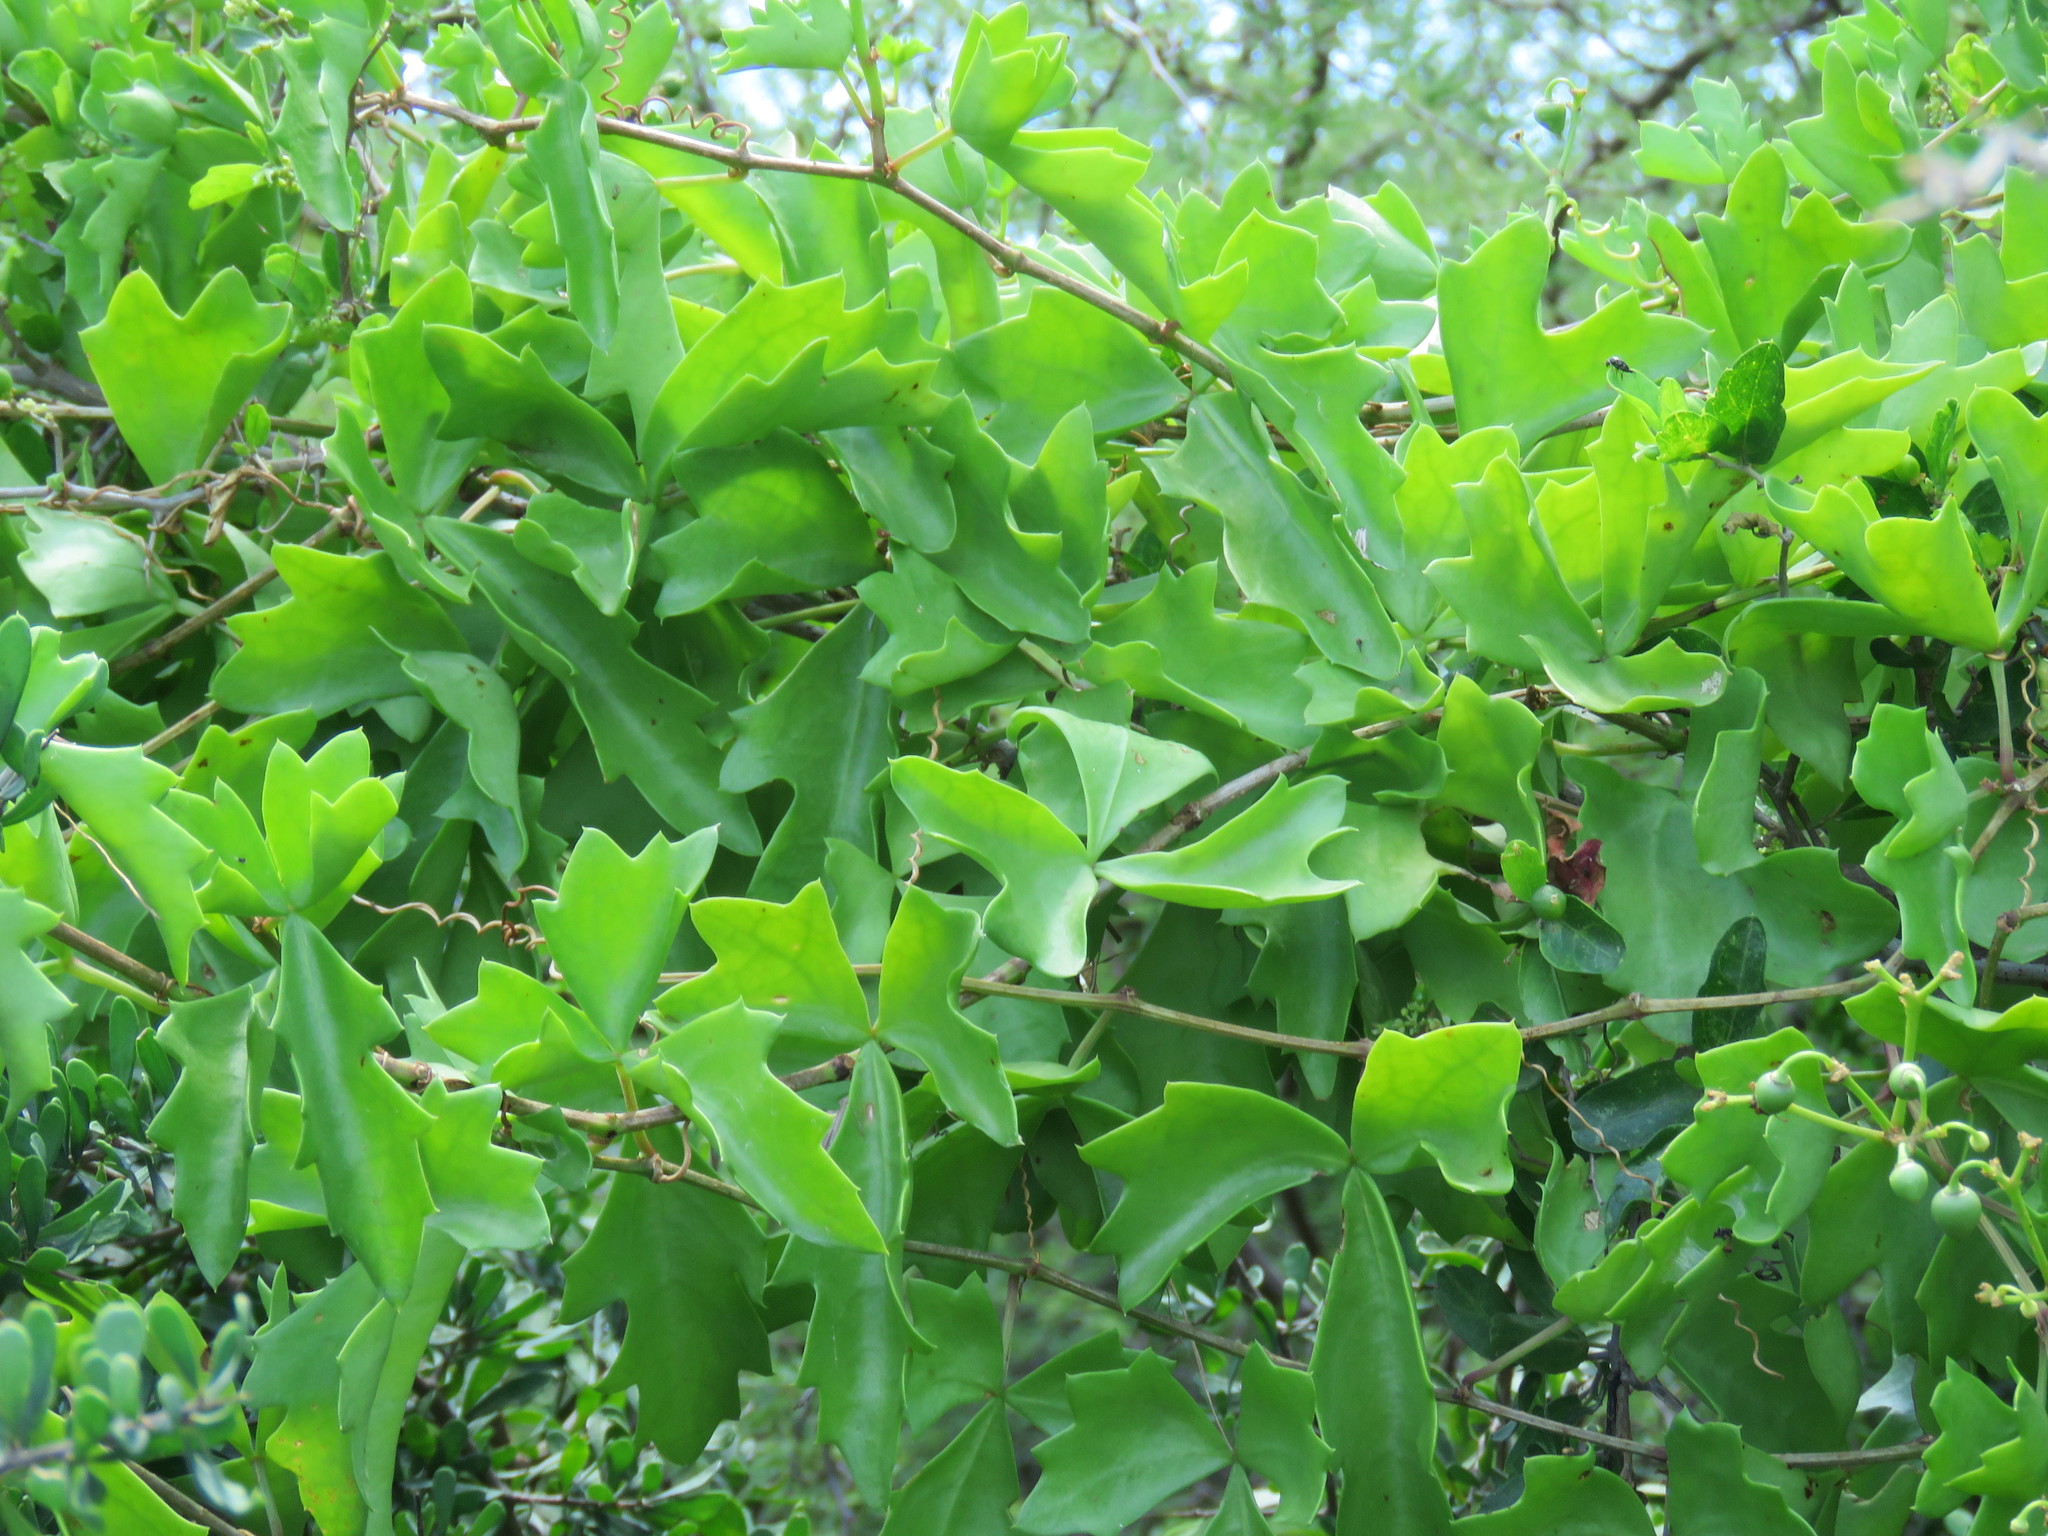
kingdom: Plantae
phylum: Tracheophyta
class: Magnoliopsida
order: Vitales
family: Vitaceae
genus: Cissus
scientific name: Cissus trifoliata
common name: Vine-sorrel
